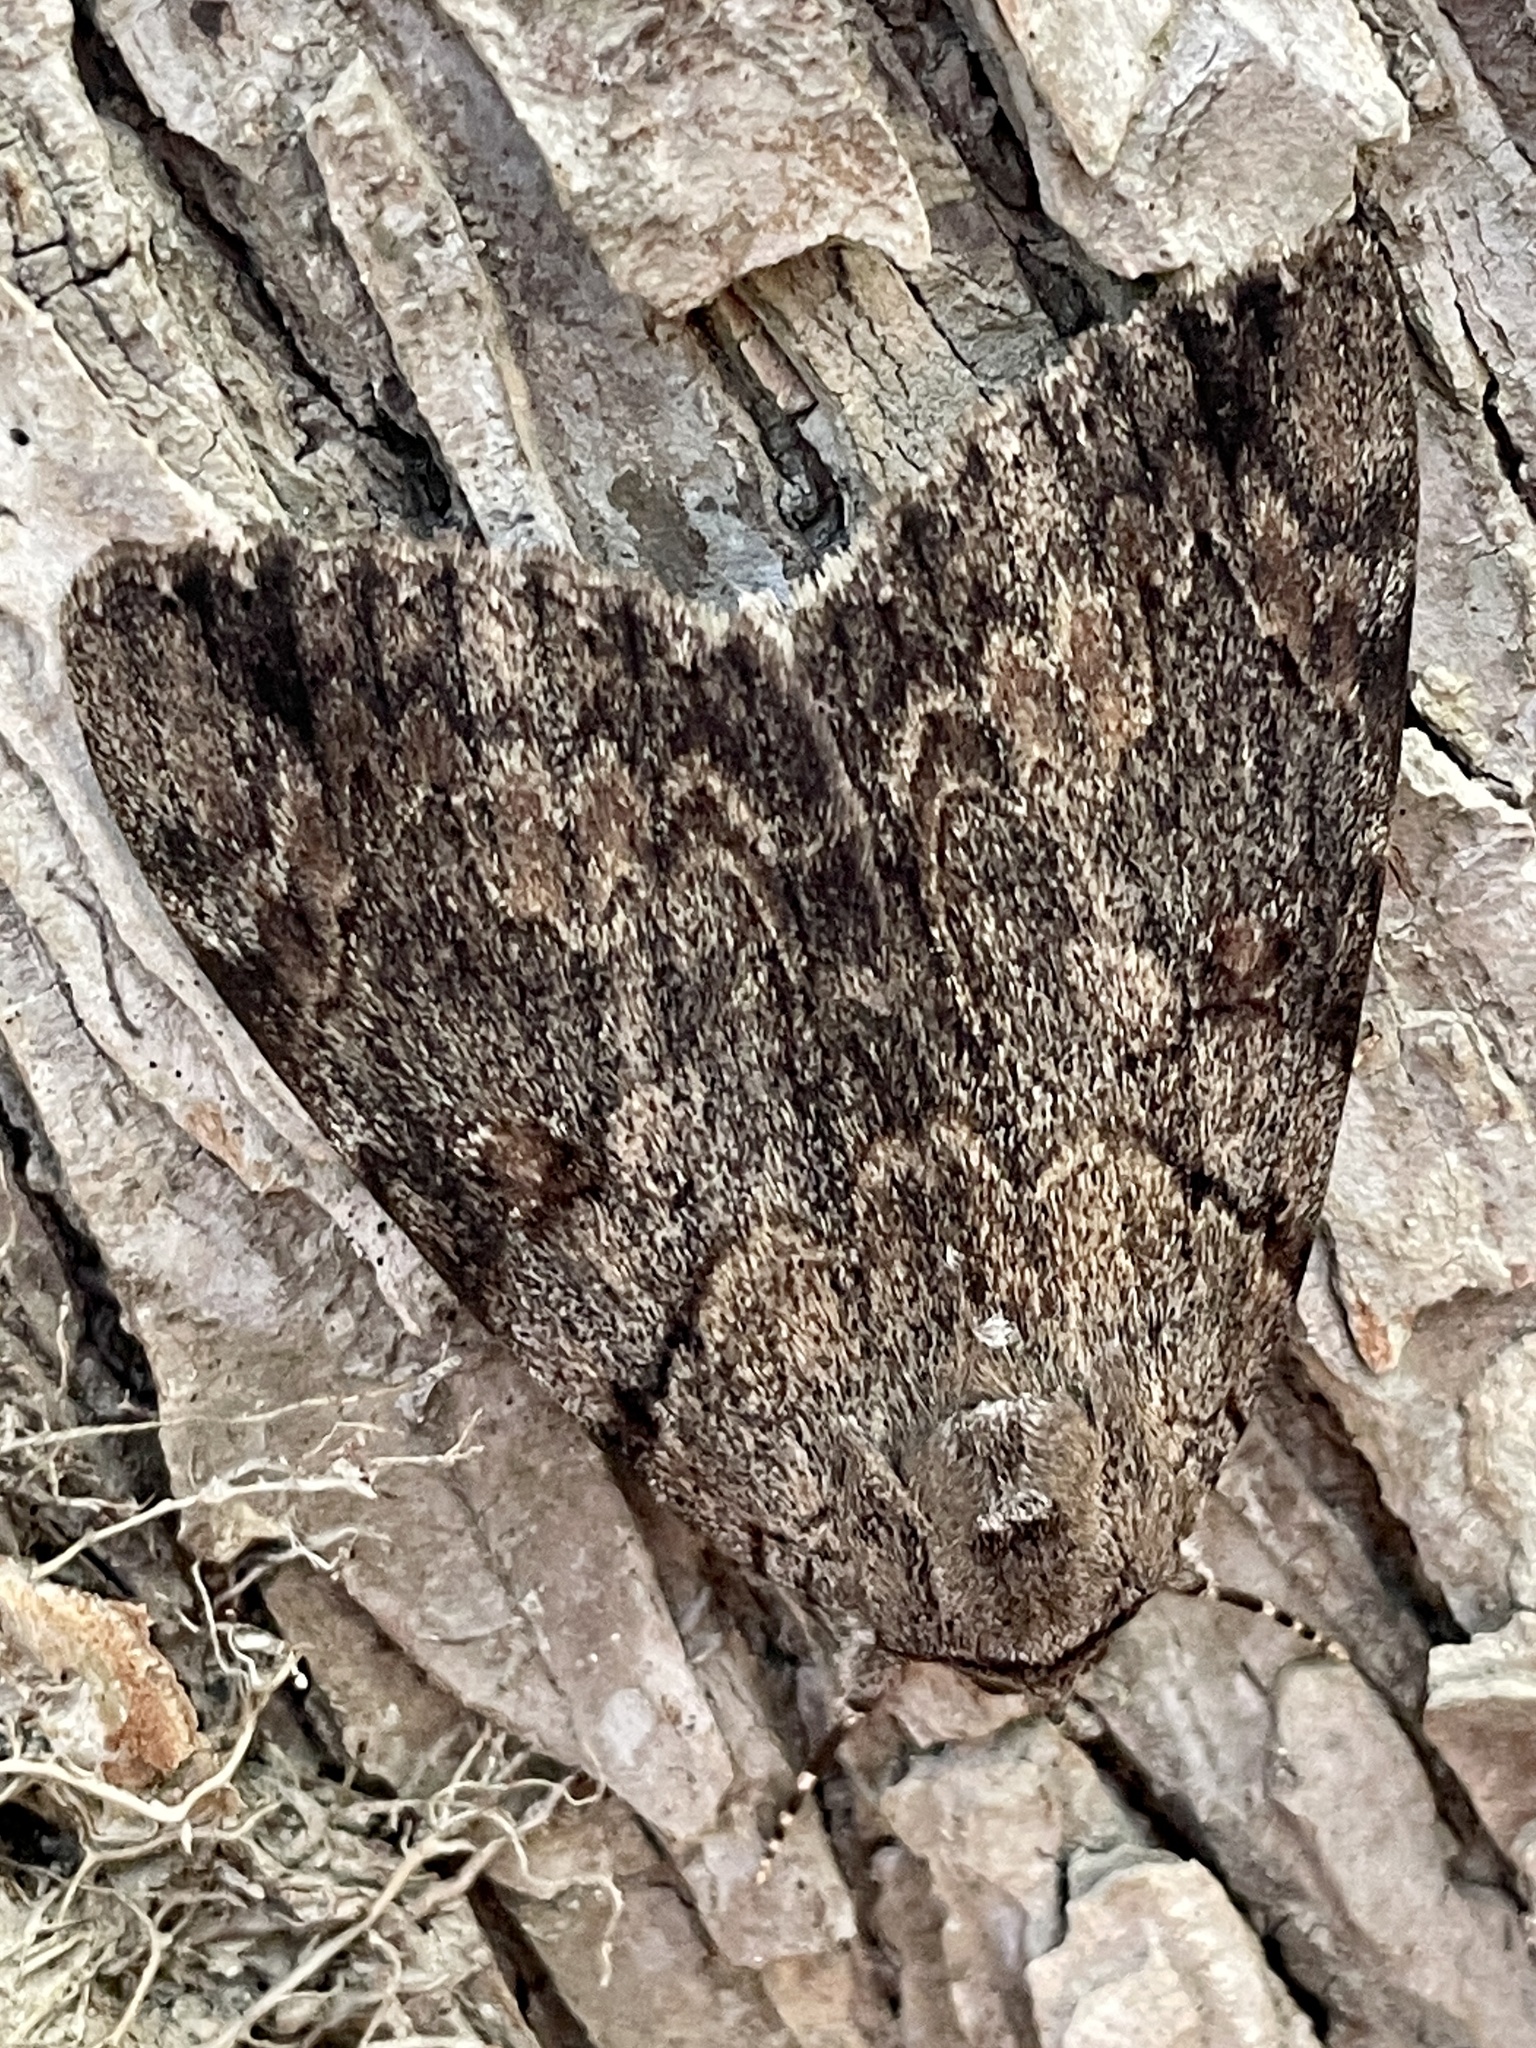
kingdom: Animalia
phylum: Arthropoda
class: Insecta
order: Lepidoptera
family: Erebidae
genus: Catocala
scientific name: Catocala agrippina
